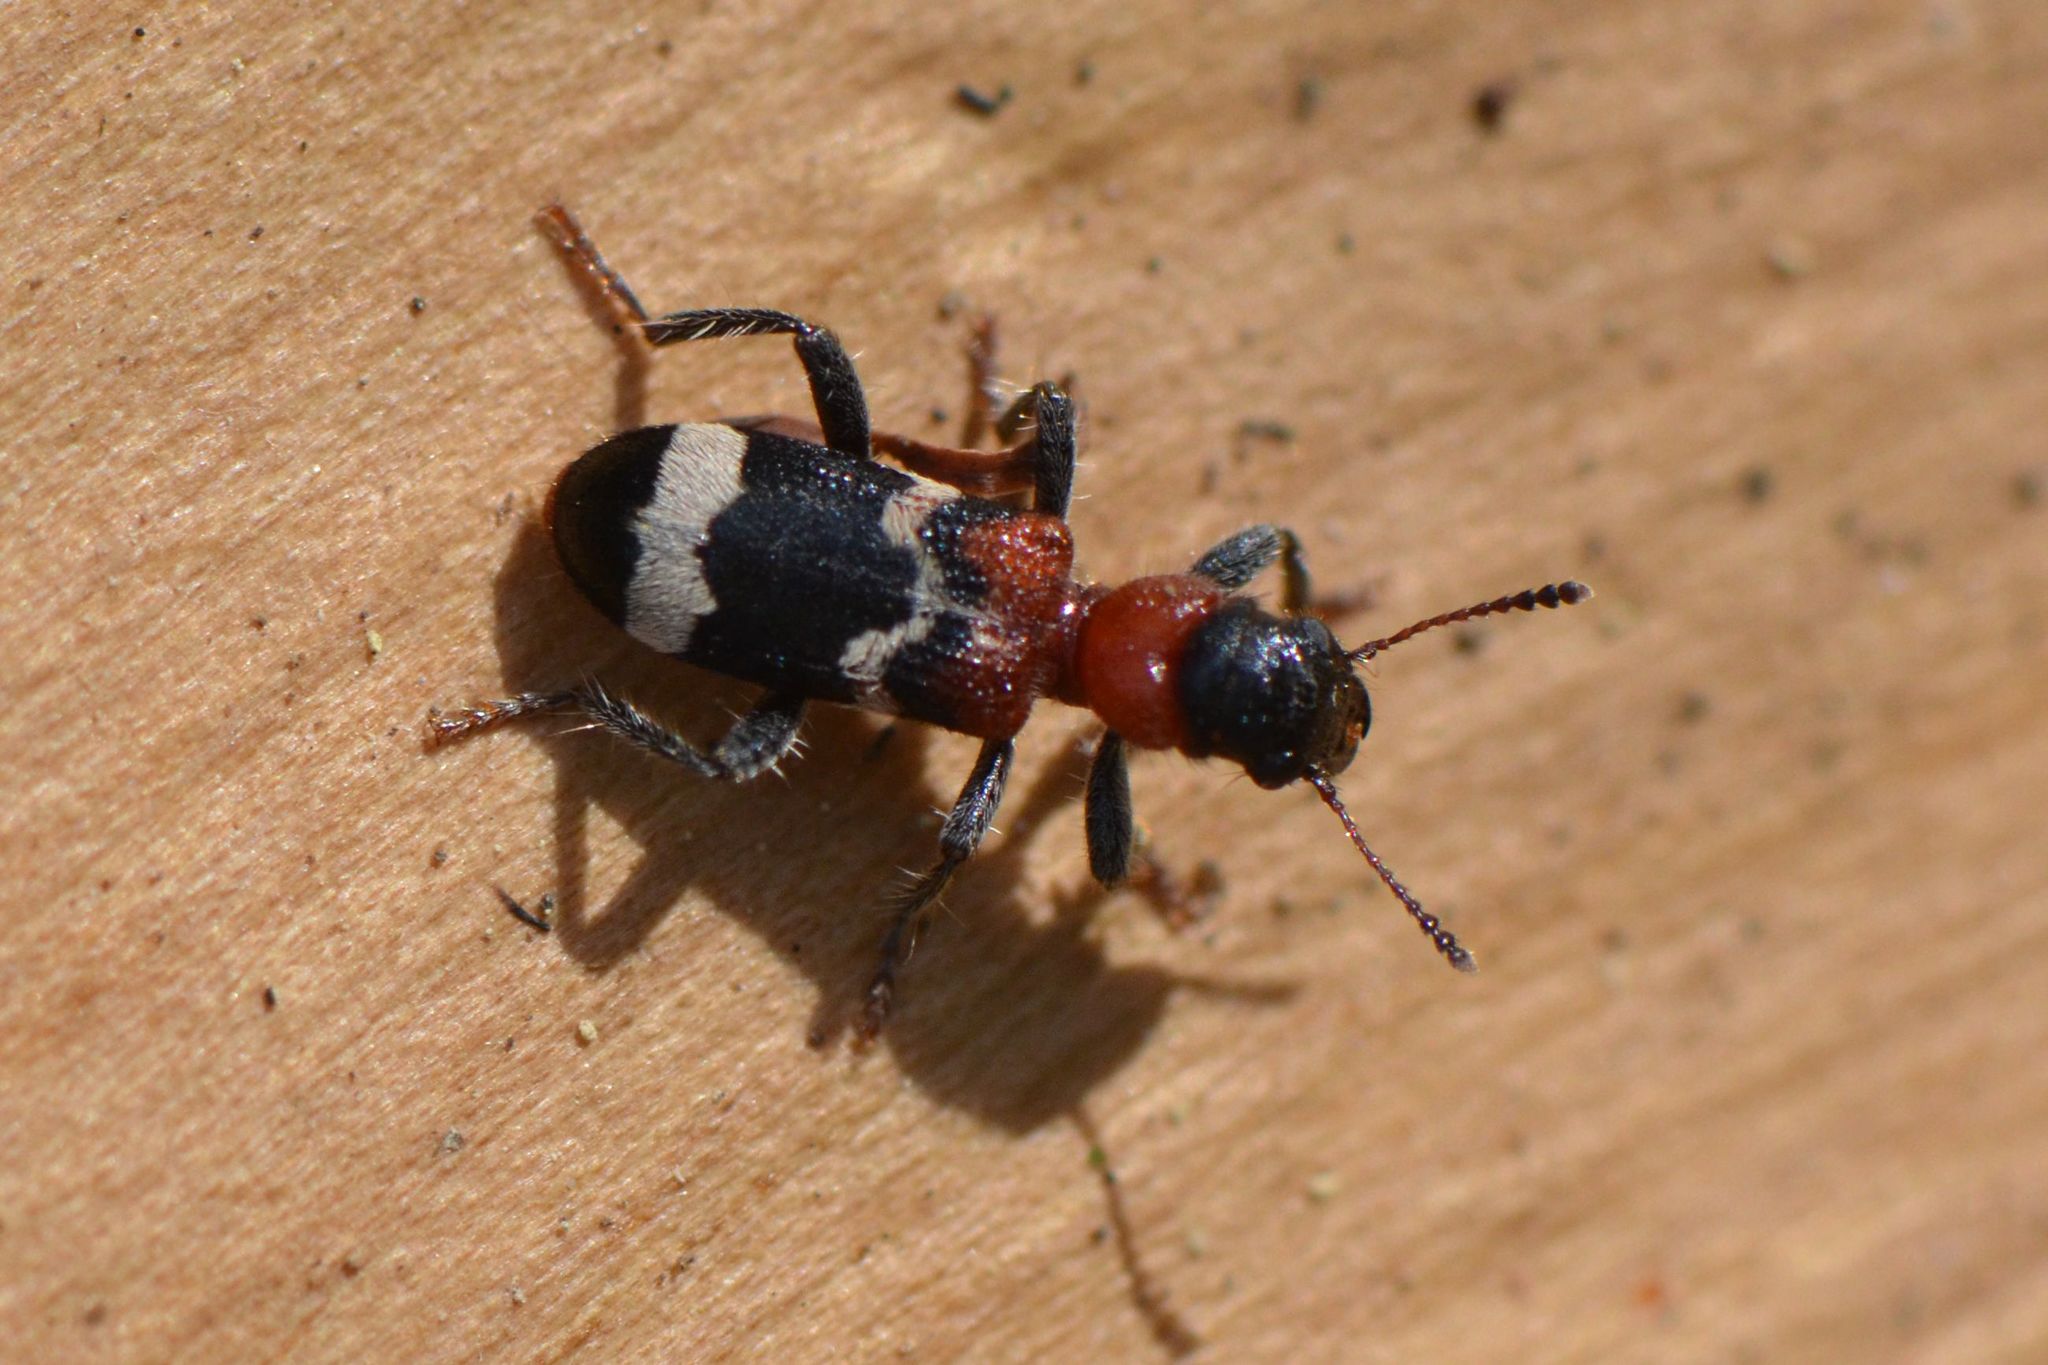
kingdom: Animalia
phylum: Arthropoda
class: Insecta
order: Coleoptera
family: Cleridae
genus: Thanasimus
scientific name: Thanasimus formicarius
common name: Ant beetle
